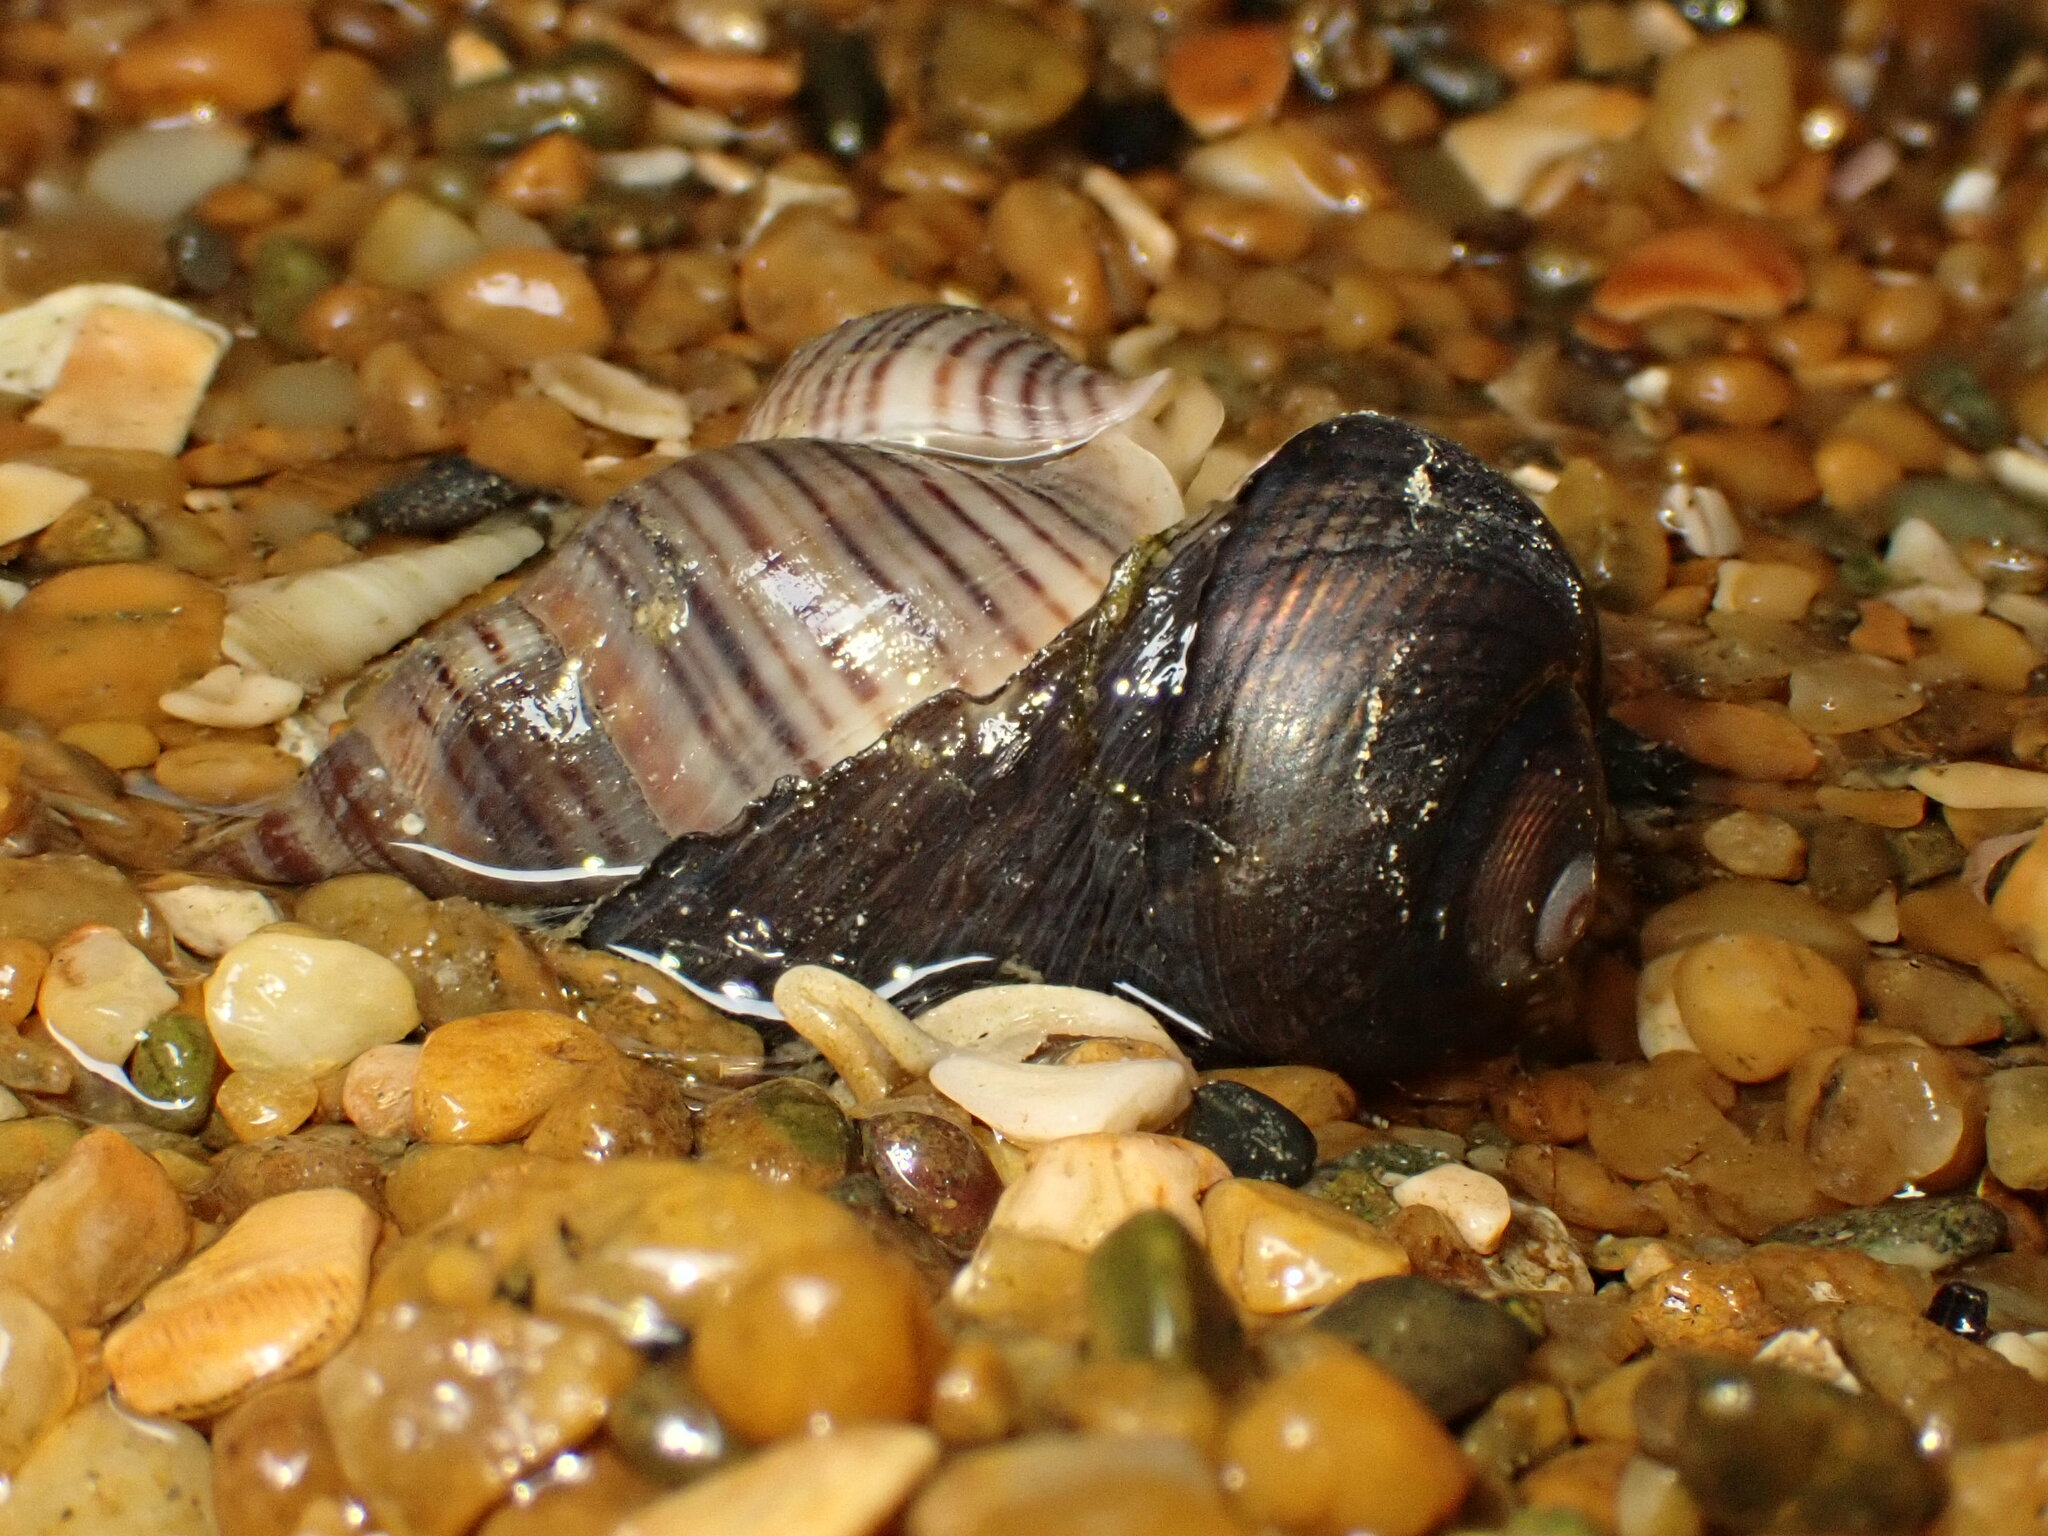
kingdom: Animalia
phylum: Mollusca
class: Gastropoda
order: Neogastropoda
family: Tudiclidae
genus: Buccinulum
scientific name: Buccinulum littorinoides
